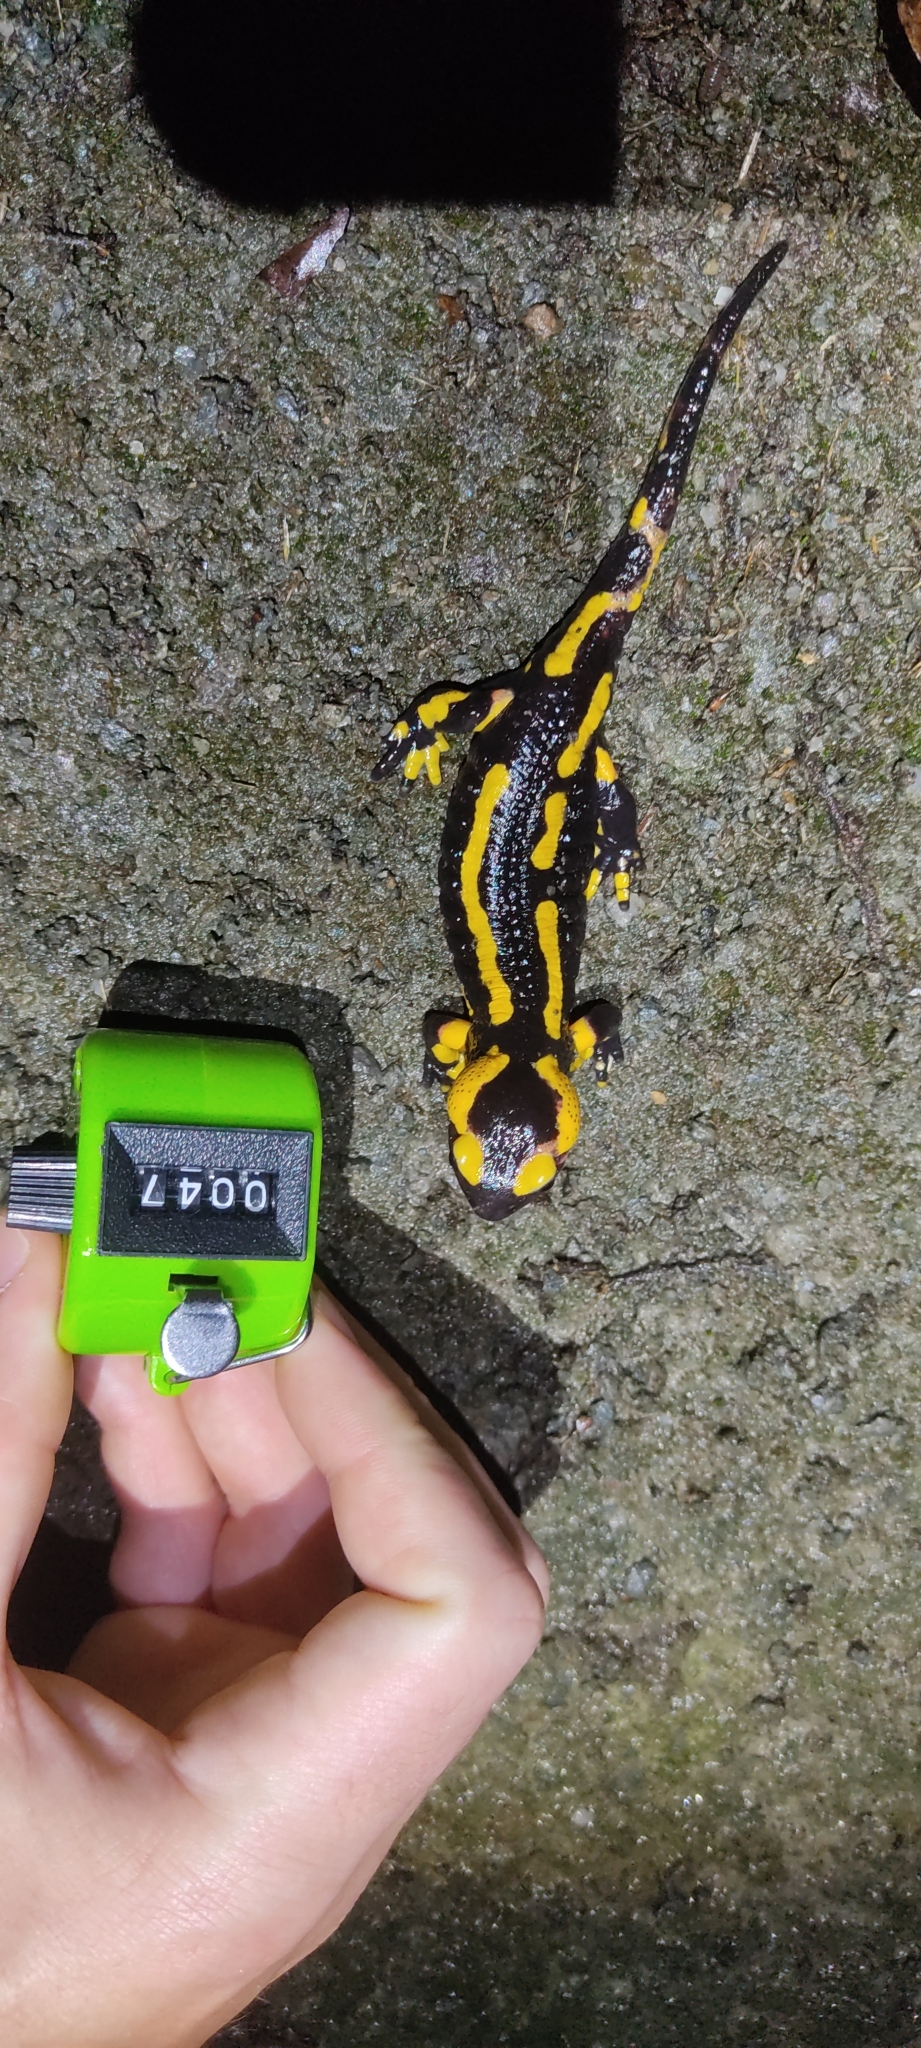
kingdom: Animalia
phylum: Chordata
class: Amphibia
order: Caudata
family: Salamandridae
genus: Salamandra
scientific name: Salamandra salamandra
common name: Fire salamander
